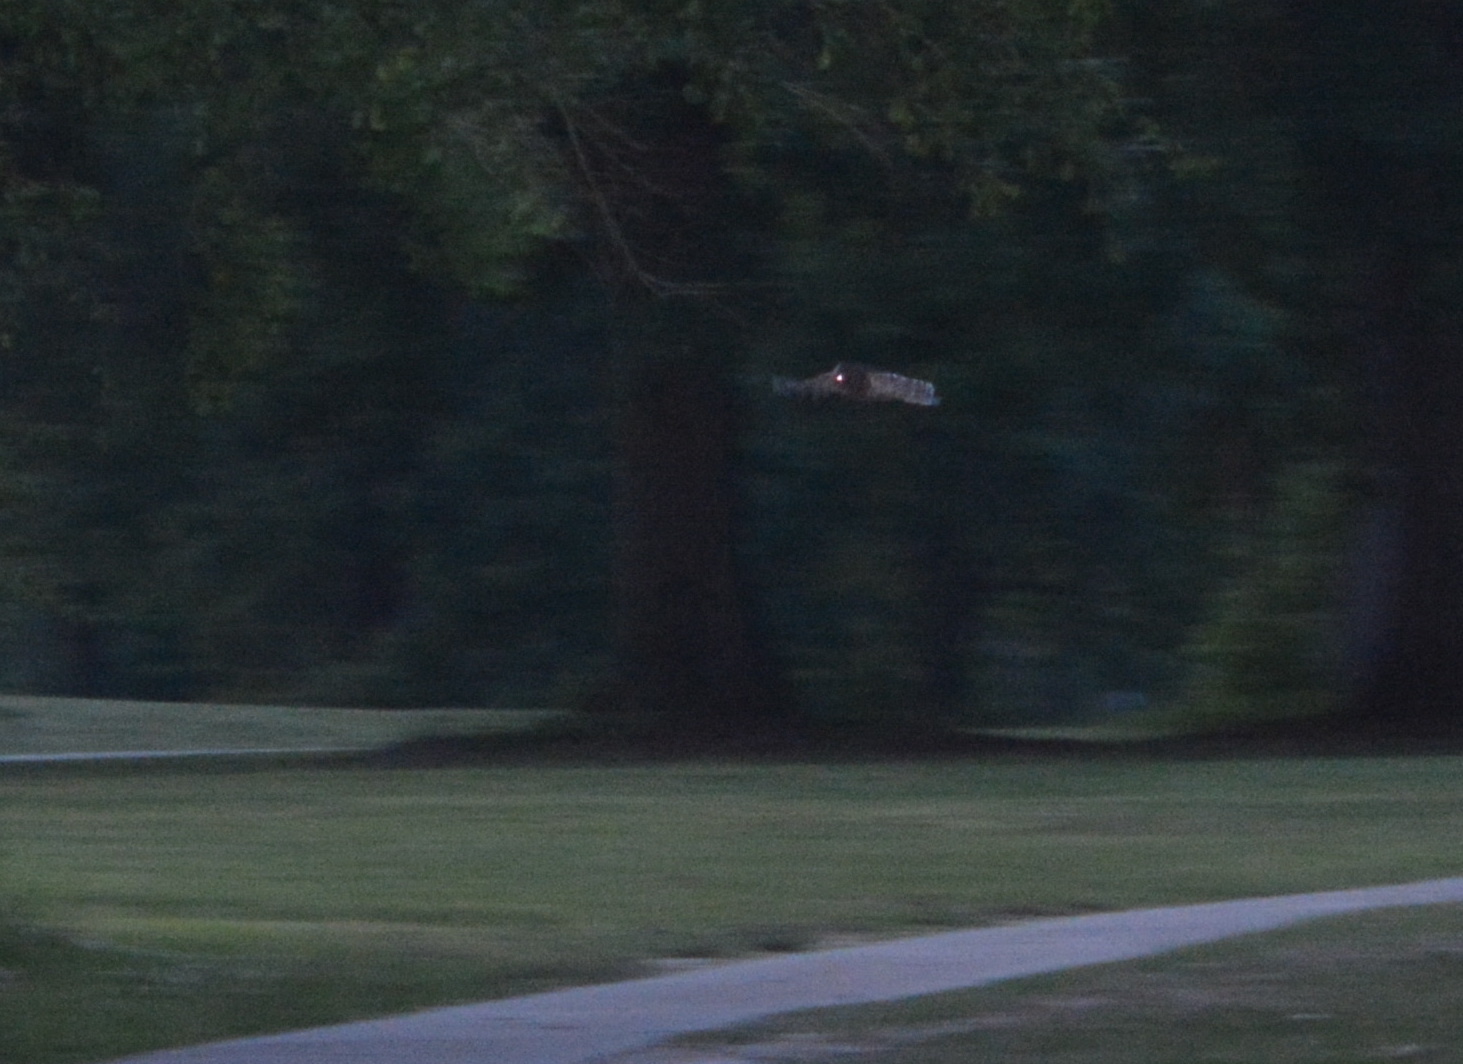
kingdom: Animalia
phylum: Chordata
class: Aves
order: Strigiformes
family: Strigidae
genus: Strix
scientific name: Strix varia
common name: Barred owl
